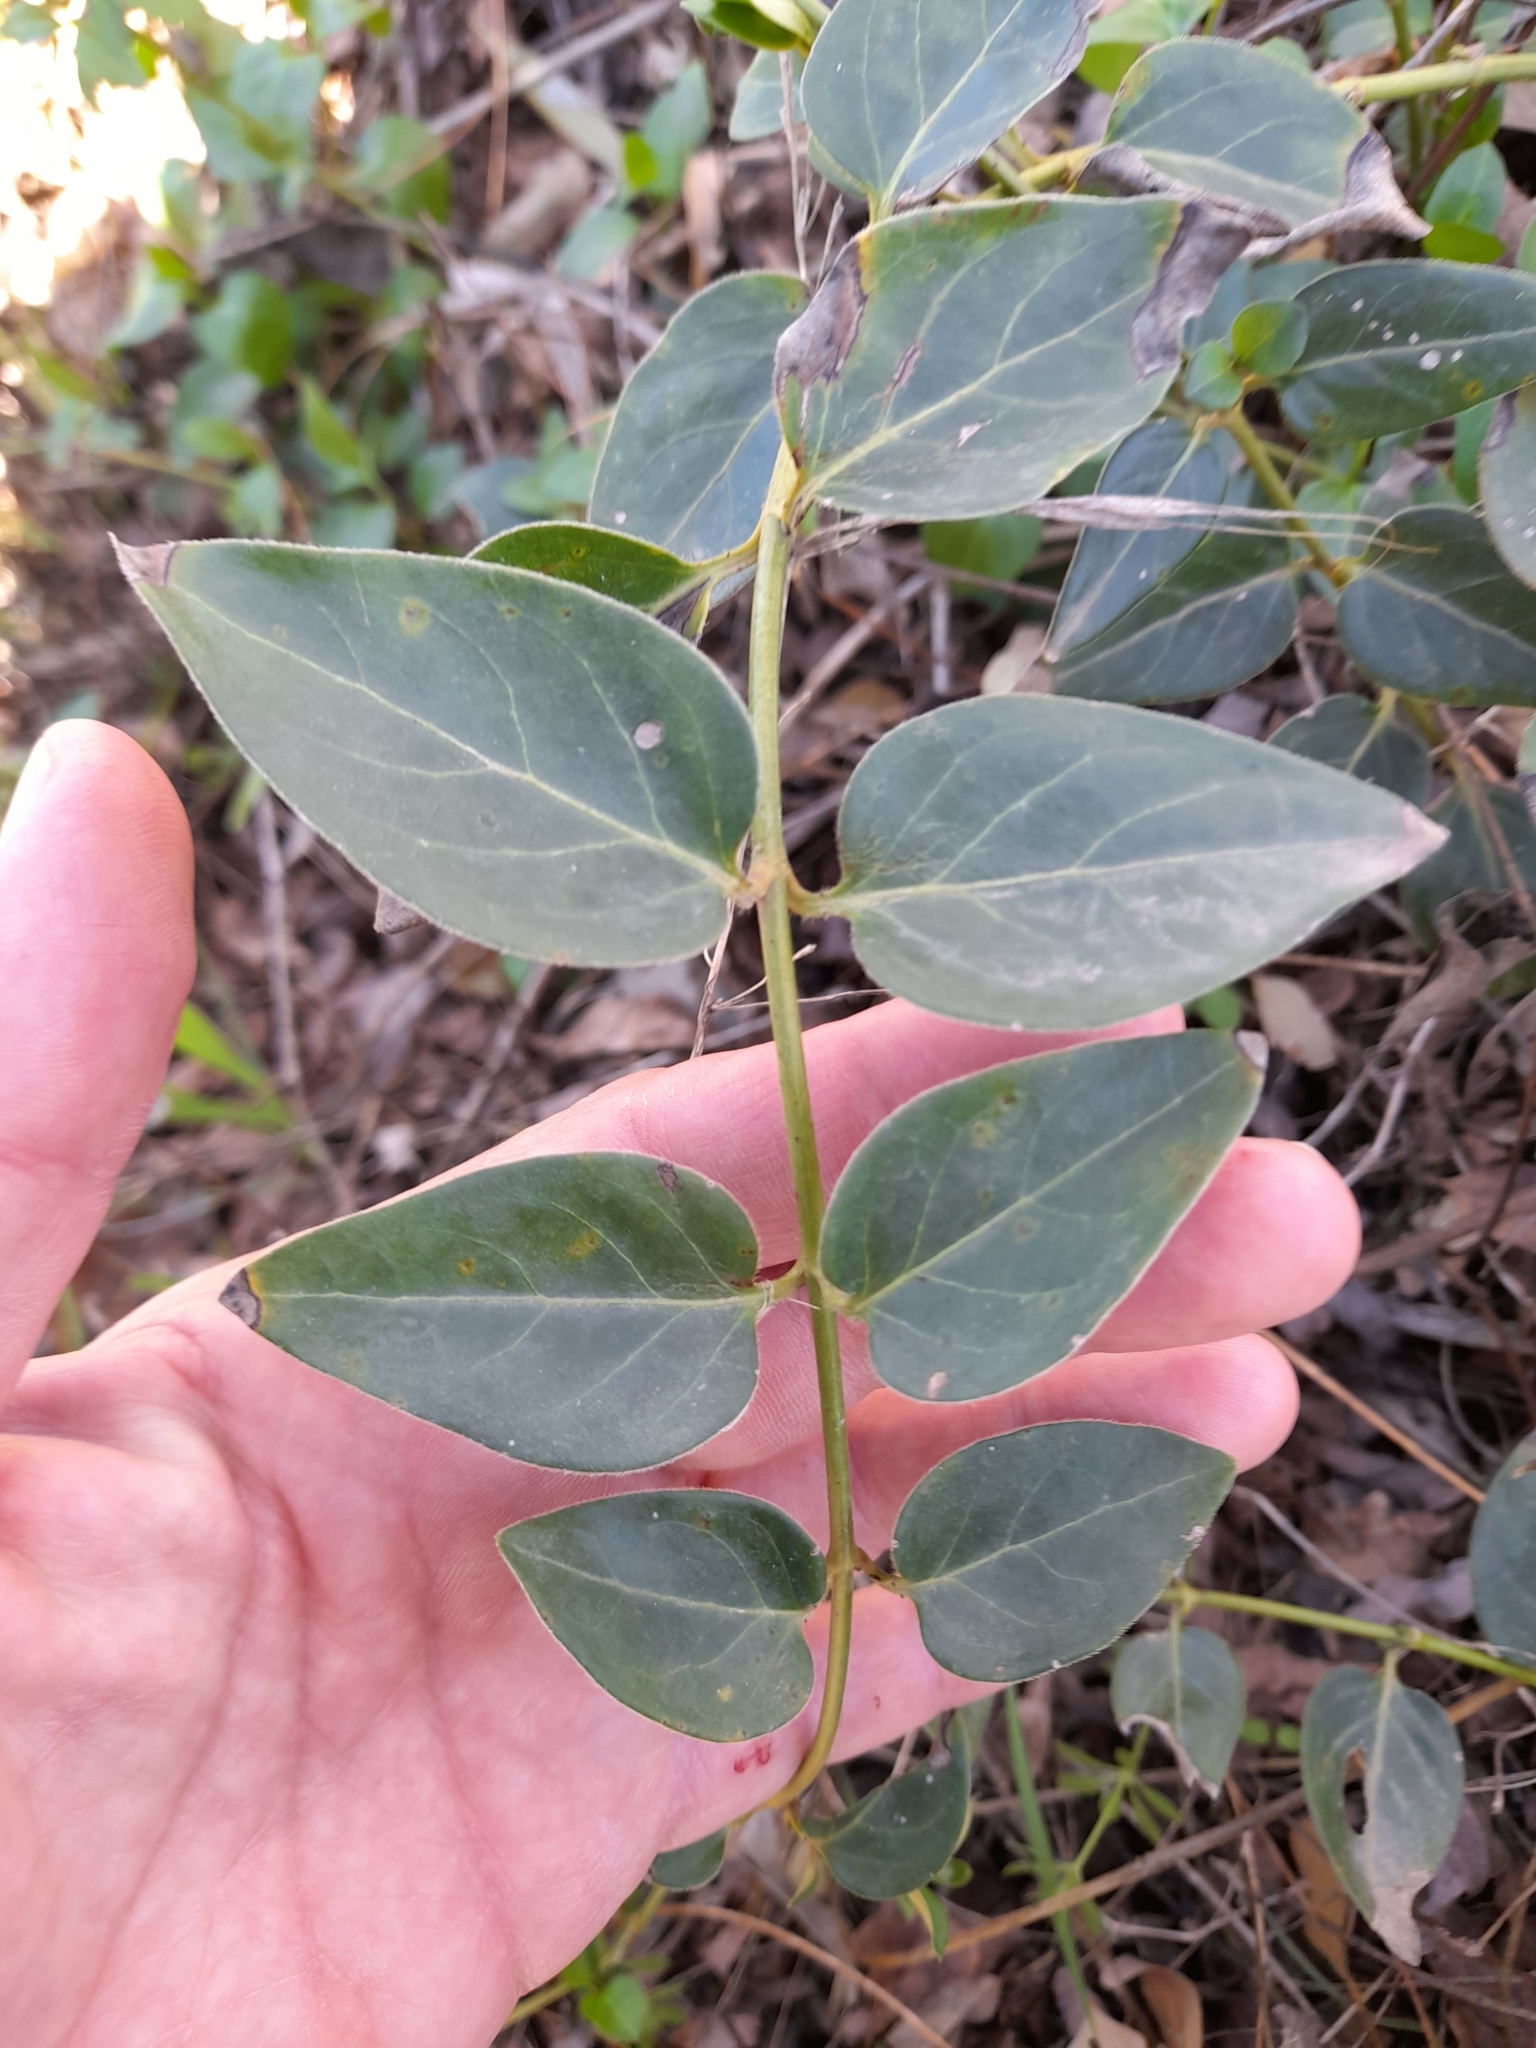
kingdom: Plantae
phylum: Tracheophyta
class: Magnoliopsida
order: Gentianales
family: Apocynaceae
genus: Vinca
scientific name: Vinca major
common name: Greater periwinkle
